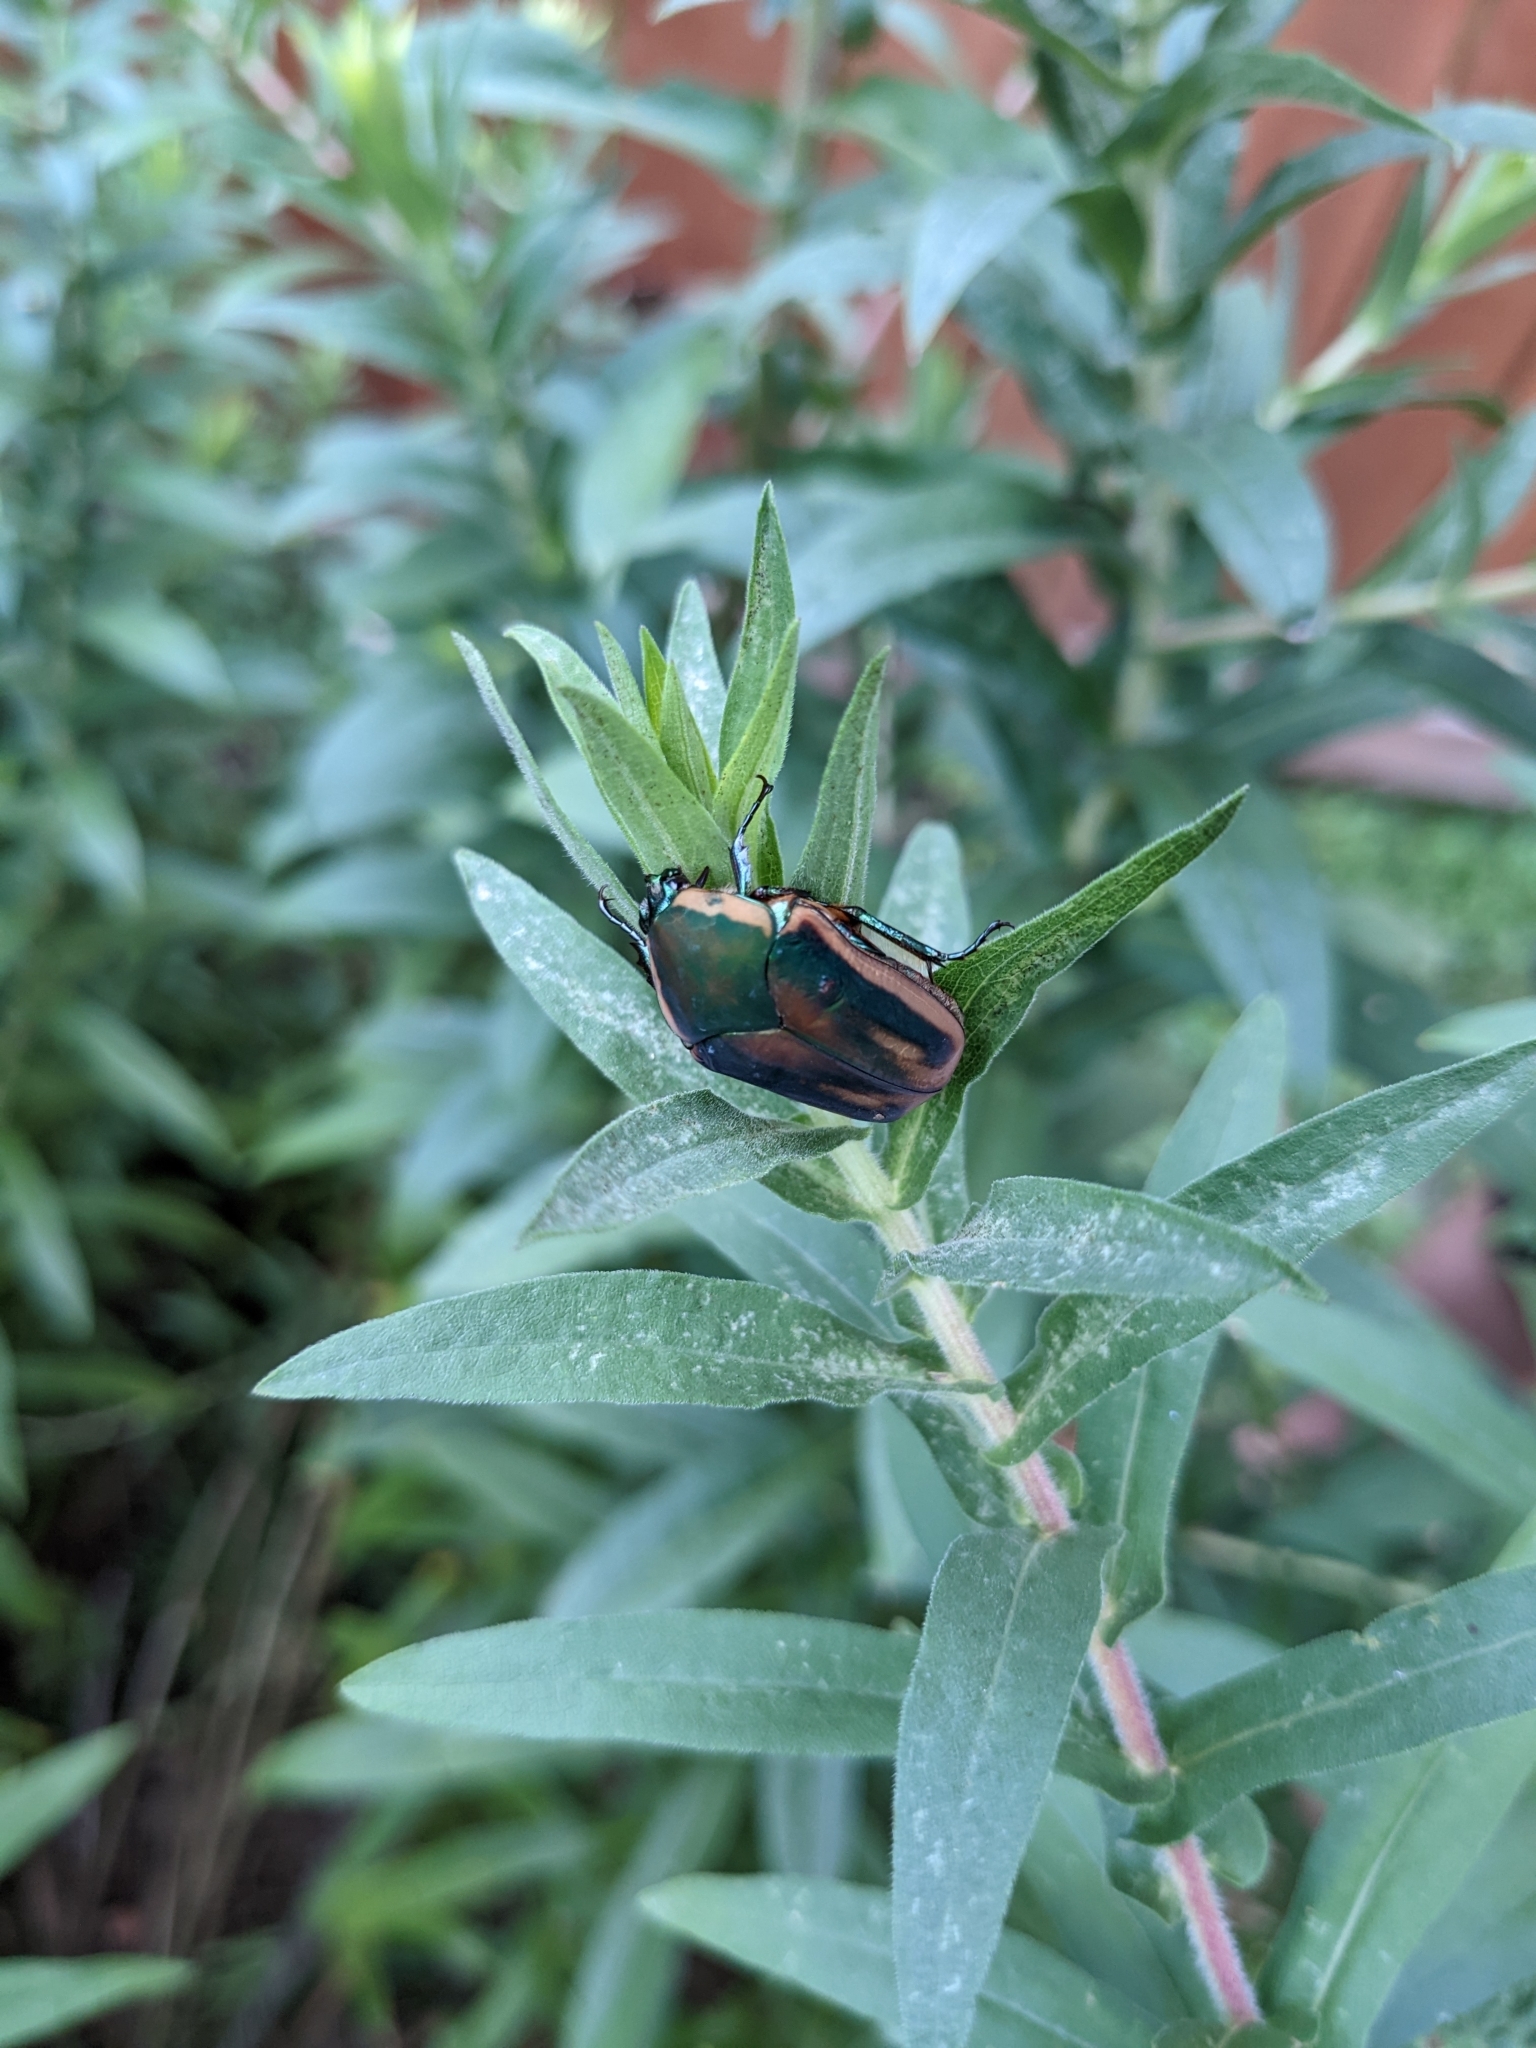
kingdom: Animalia
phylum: Arthropoda
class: Insecta
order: Coleoptera
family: Scarabaeidae
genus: Cotinis
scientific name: Cotinis nitida
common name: Common green june beetle
